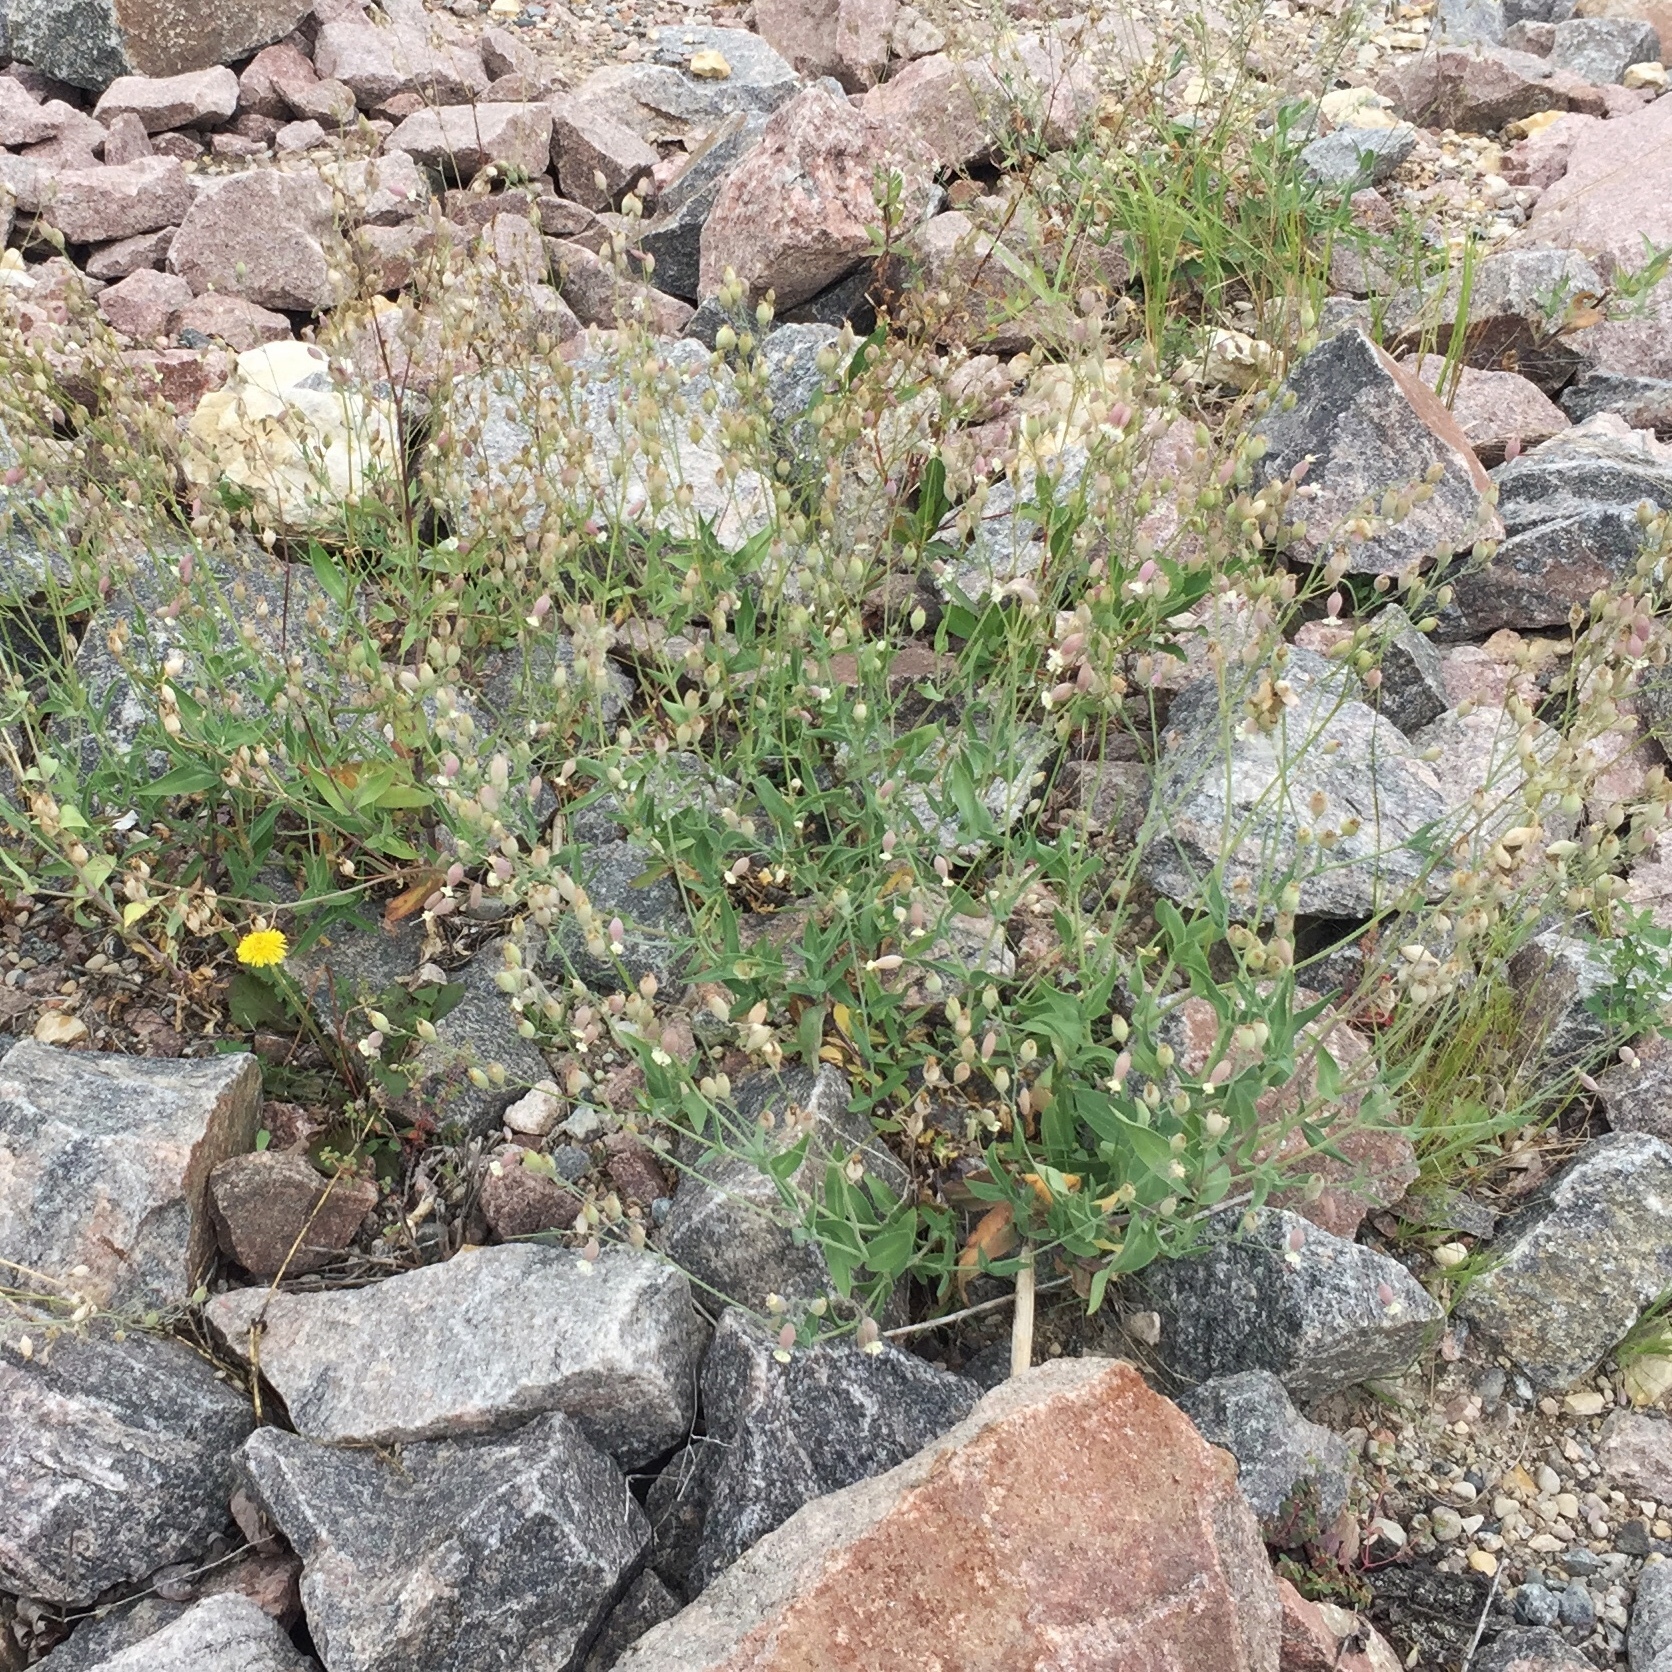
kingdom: Plantae
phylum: Tracheophyta
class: Magnoliopsida
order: Caryophyllales
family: Caryophyllaceae
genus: Silene
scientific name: Silene vulgaris
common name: Bladder campion
